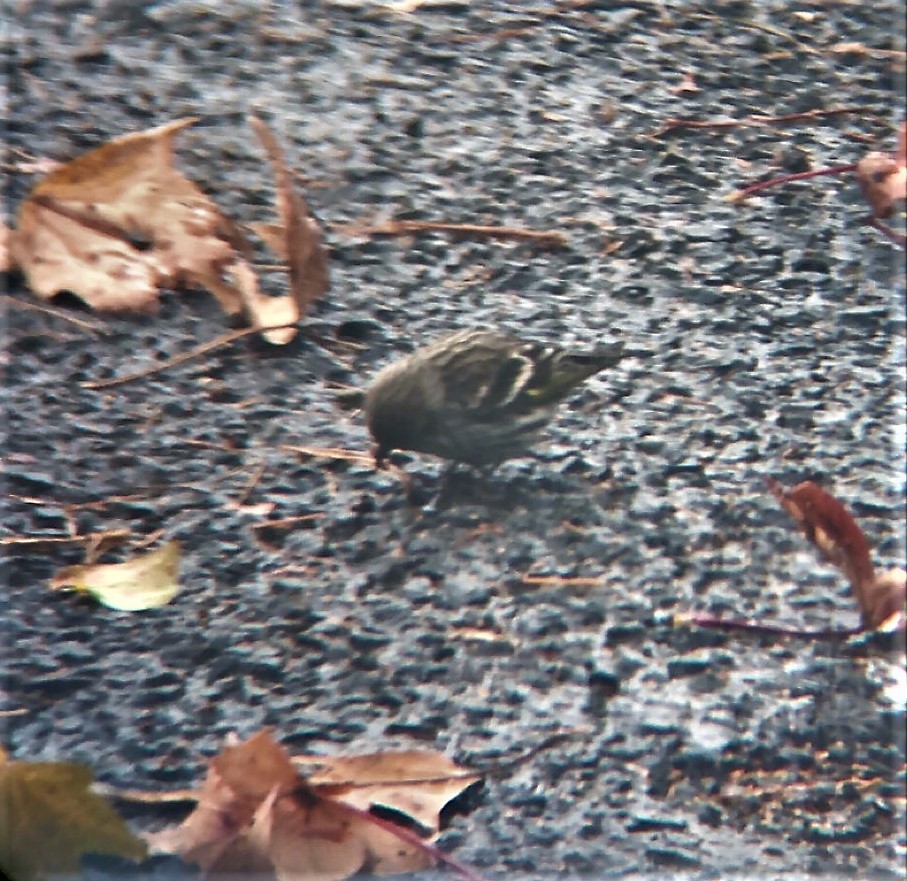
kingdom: Animalia
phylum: Chordata
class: Aves
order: Passeriformes
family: Fringillidae
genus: Spinus
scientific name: Spinus pinus
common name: Pine siskin
